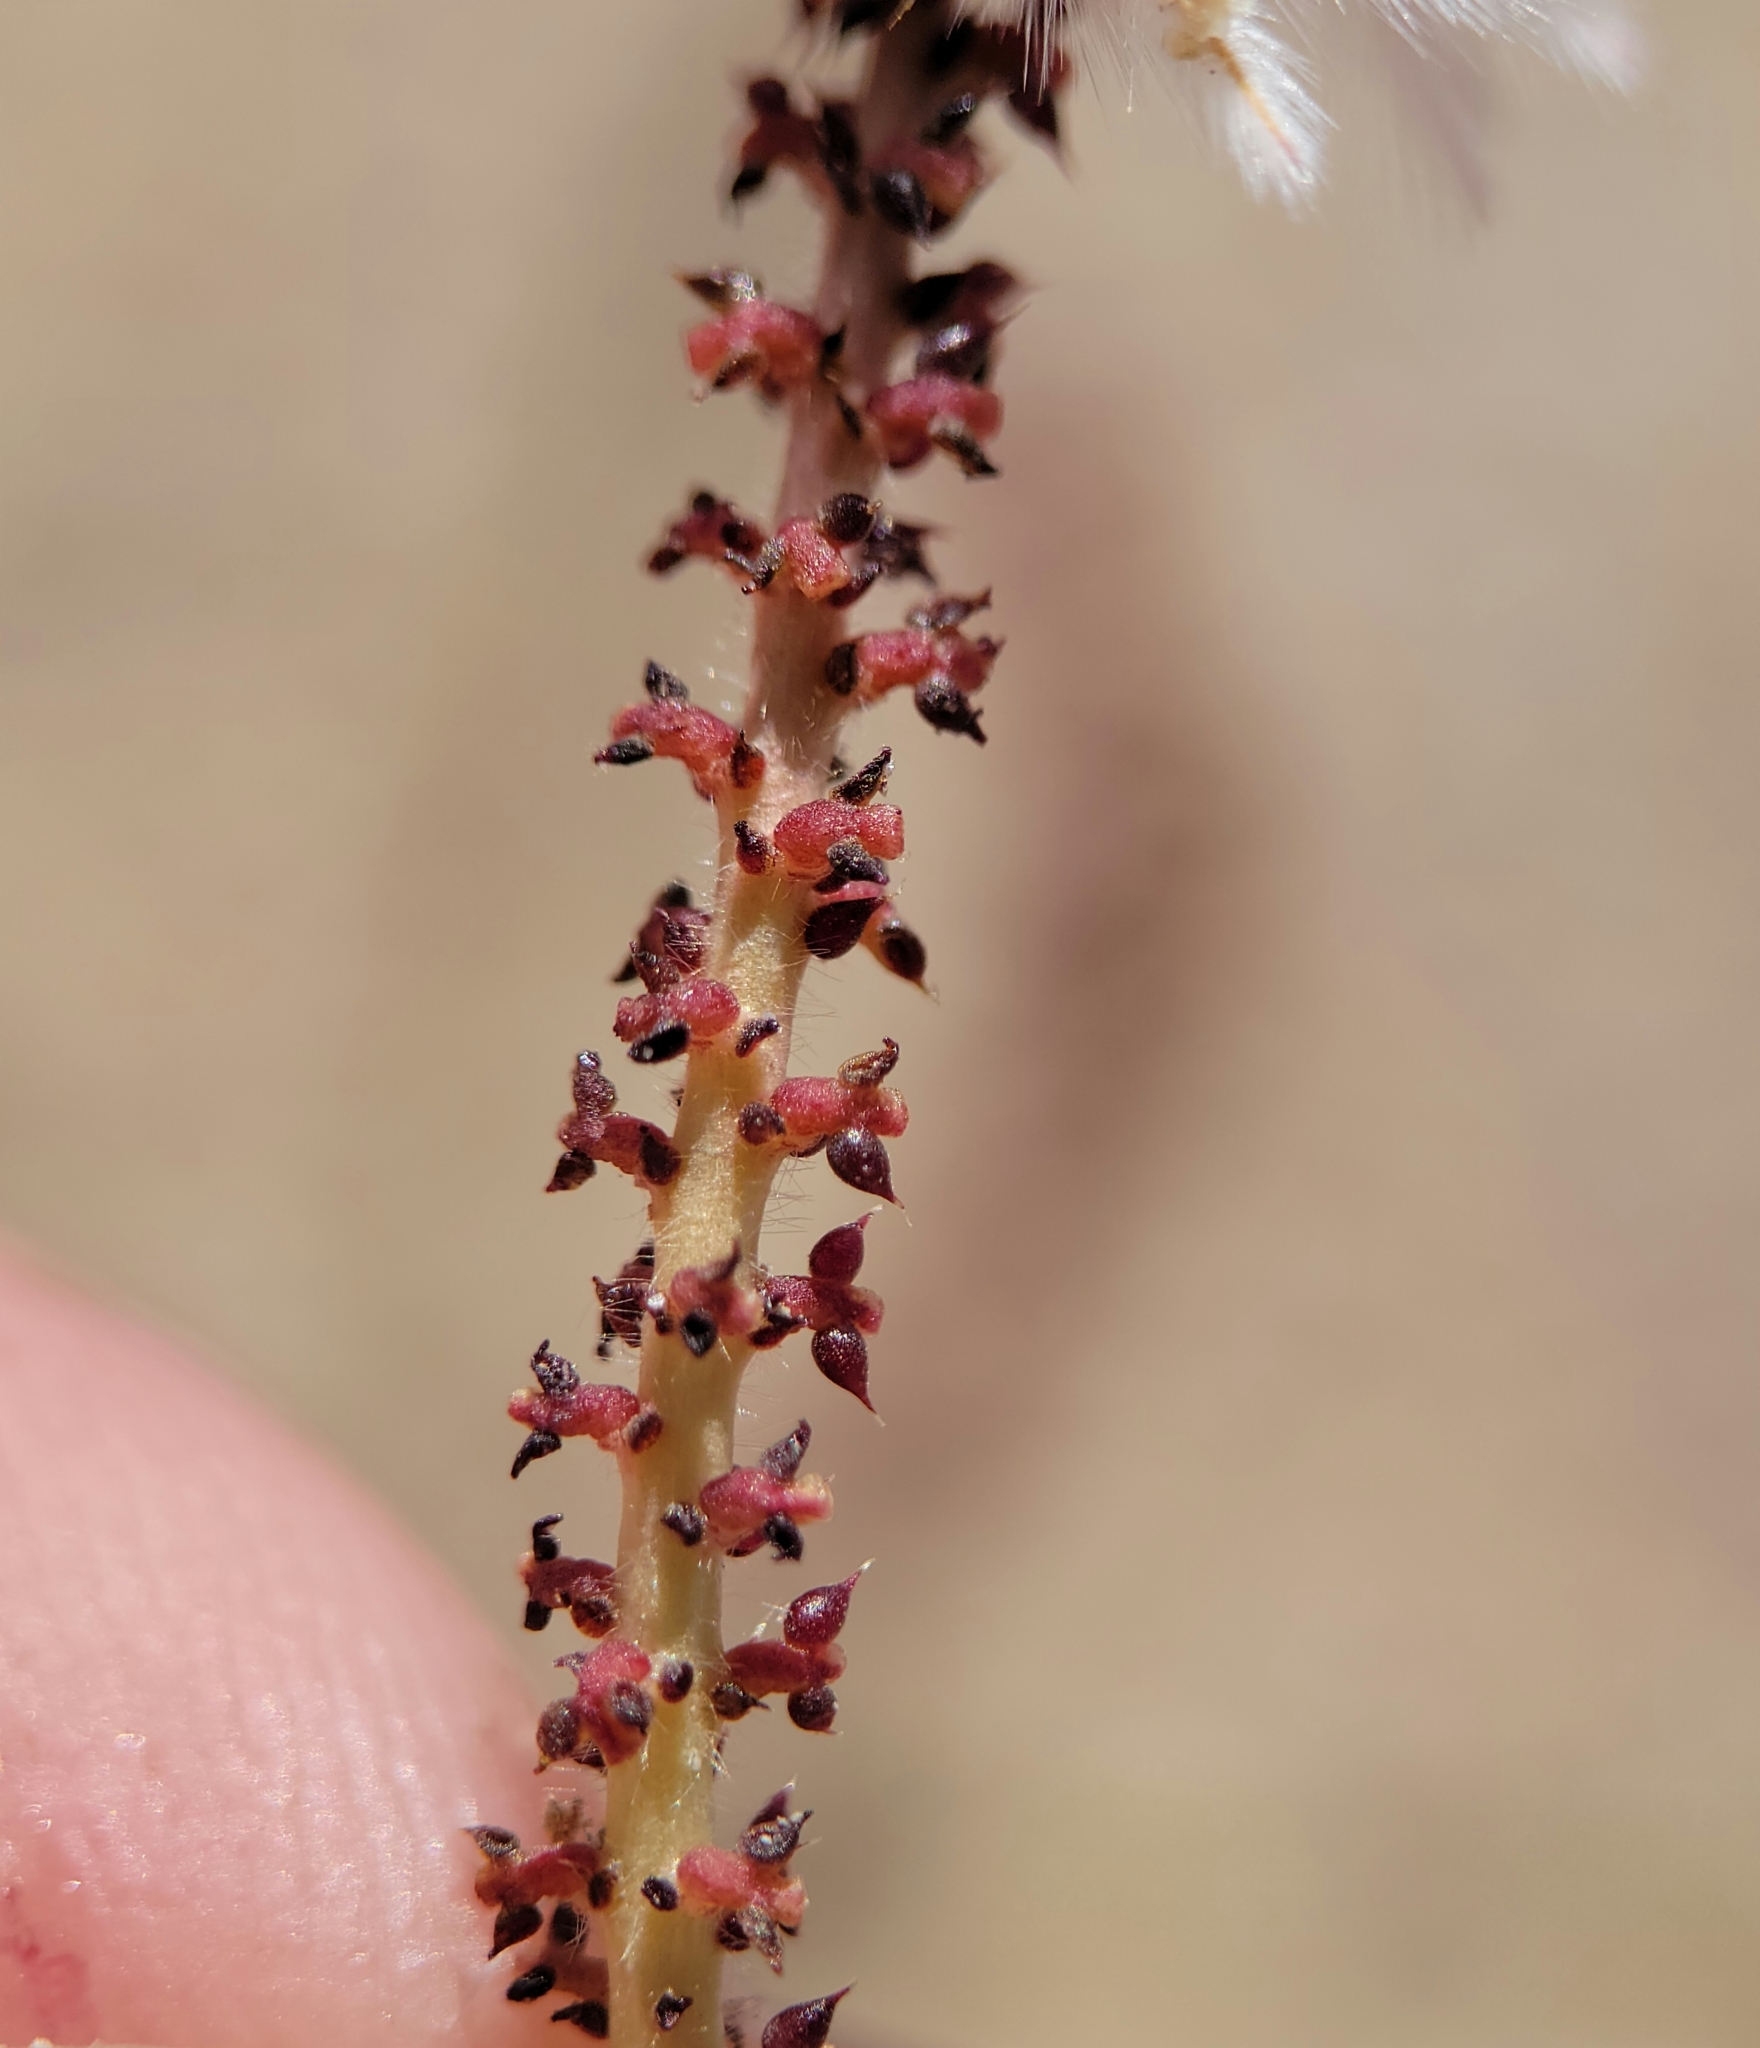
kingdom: Plantae
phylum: Tracheophyta
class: Magnoliopsida
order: Fabales
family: Fabaceae
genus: Dalea
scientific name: Dalea mollissima
